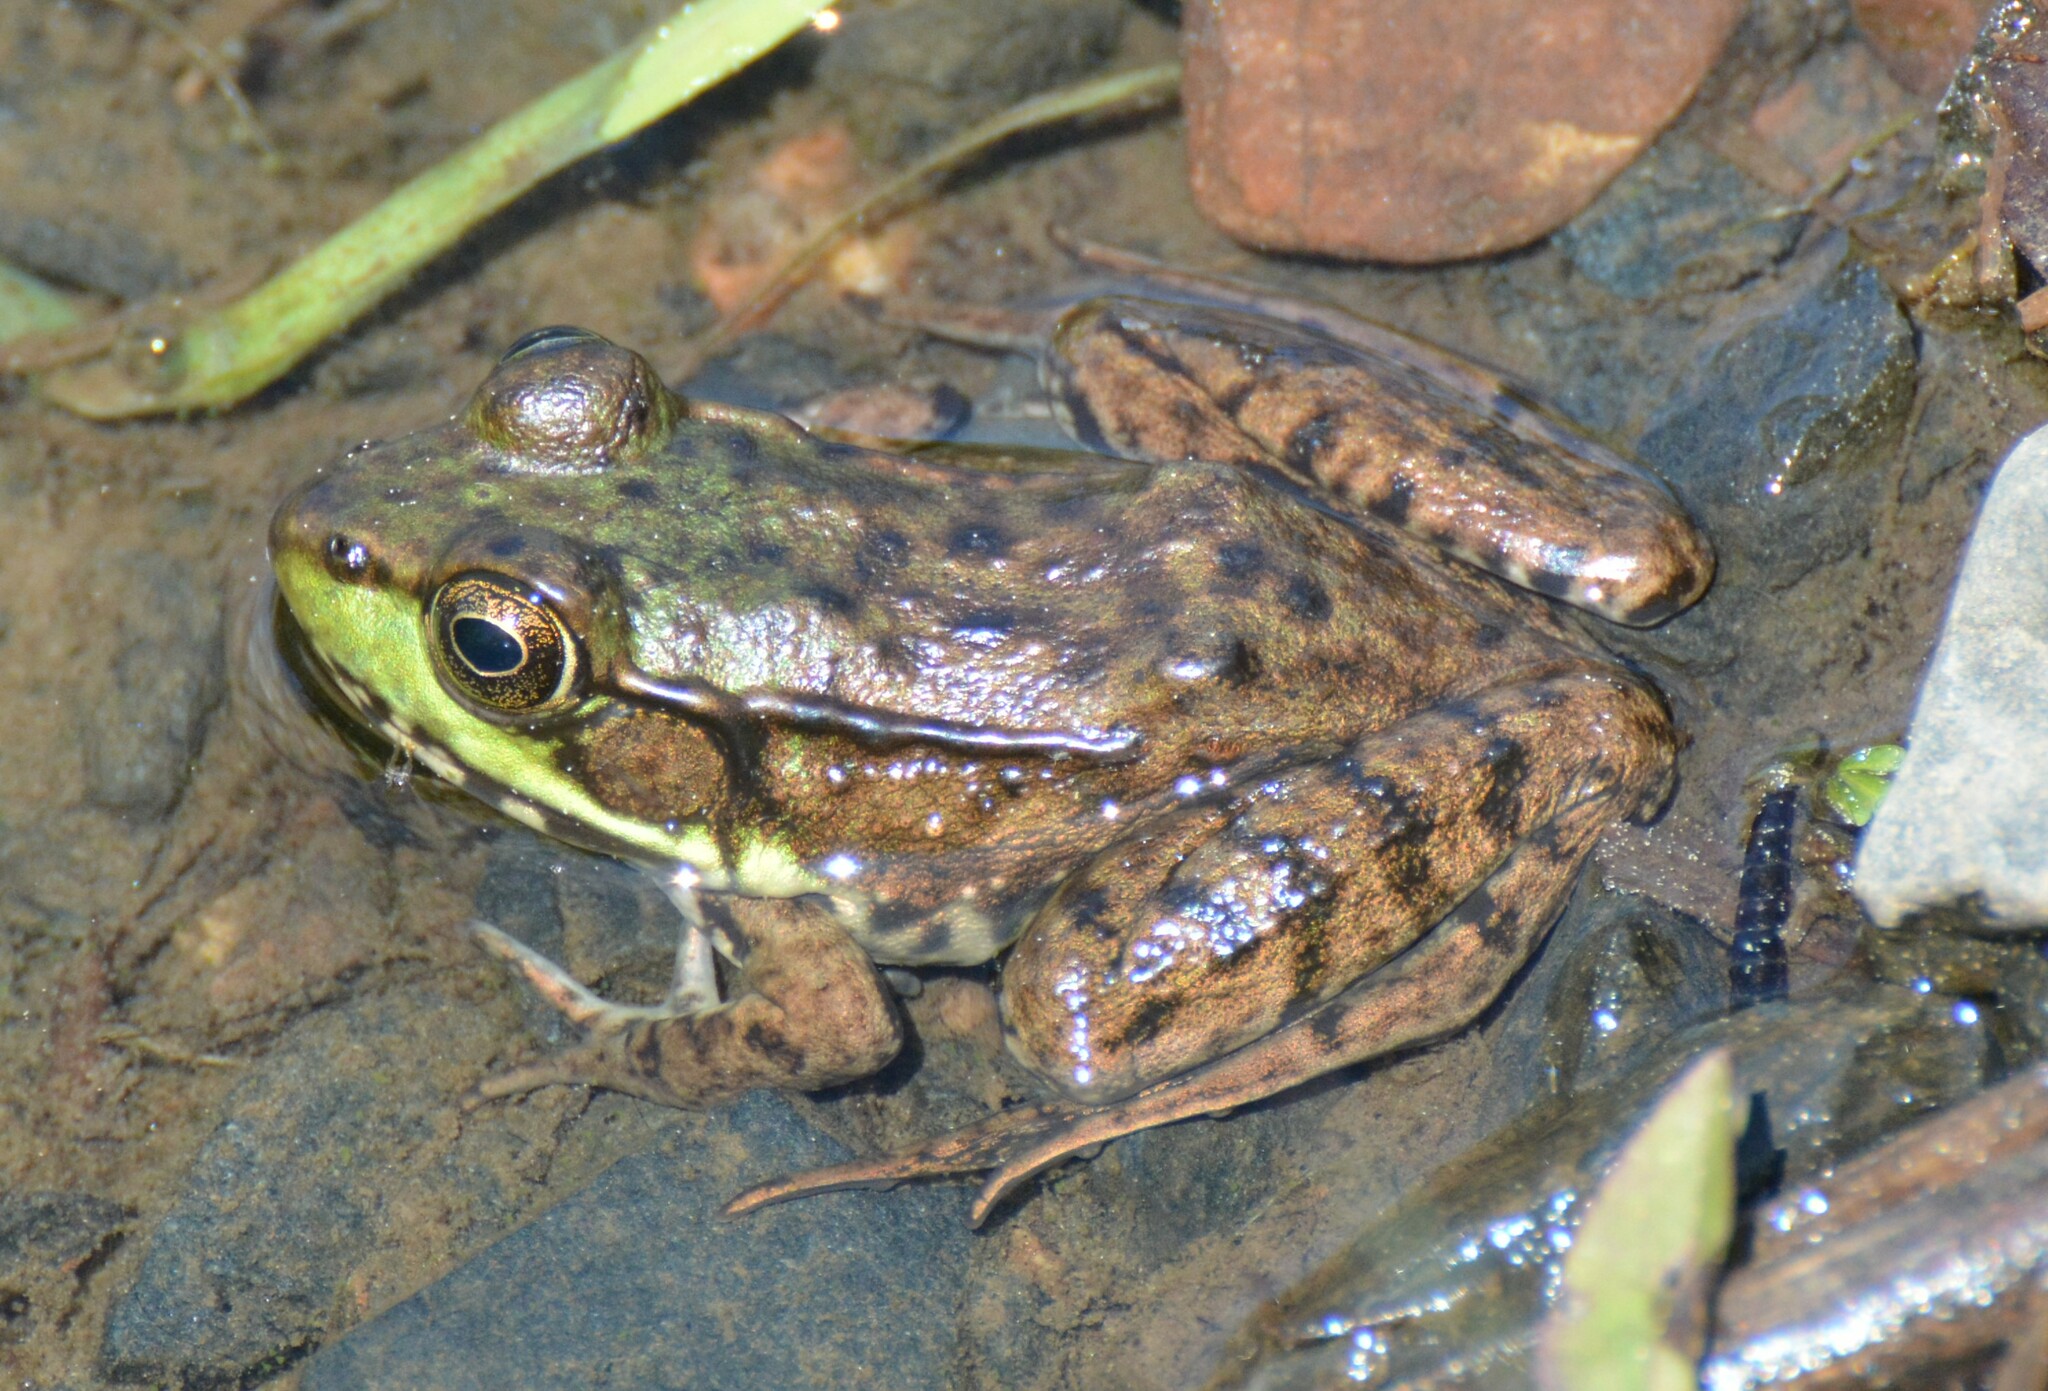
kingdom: Animalia
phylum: Chordata
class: Amphibia
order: Anura
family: Ranidae
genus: Lithobates
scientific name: Lithobates clamitans
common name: Green frog
